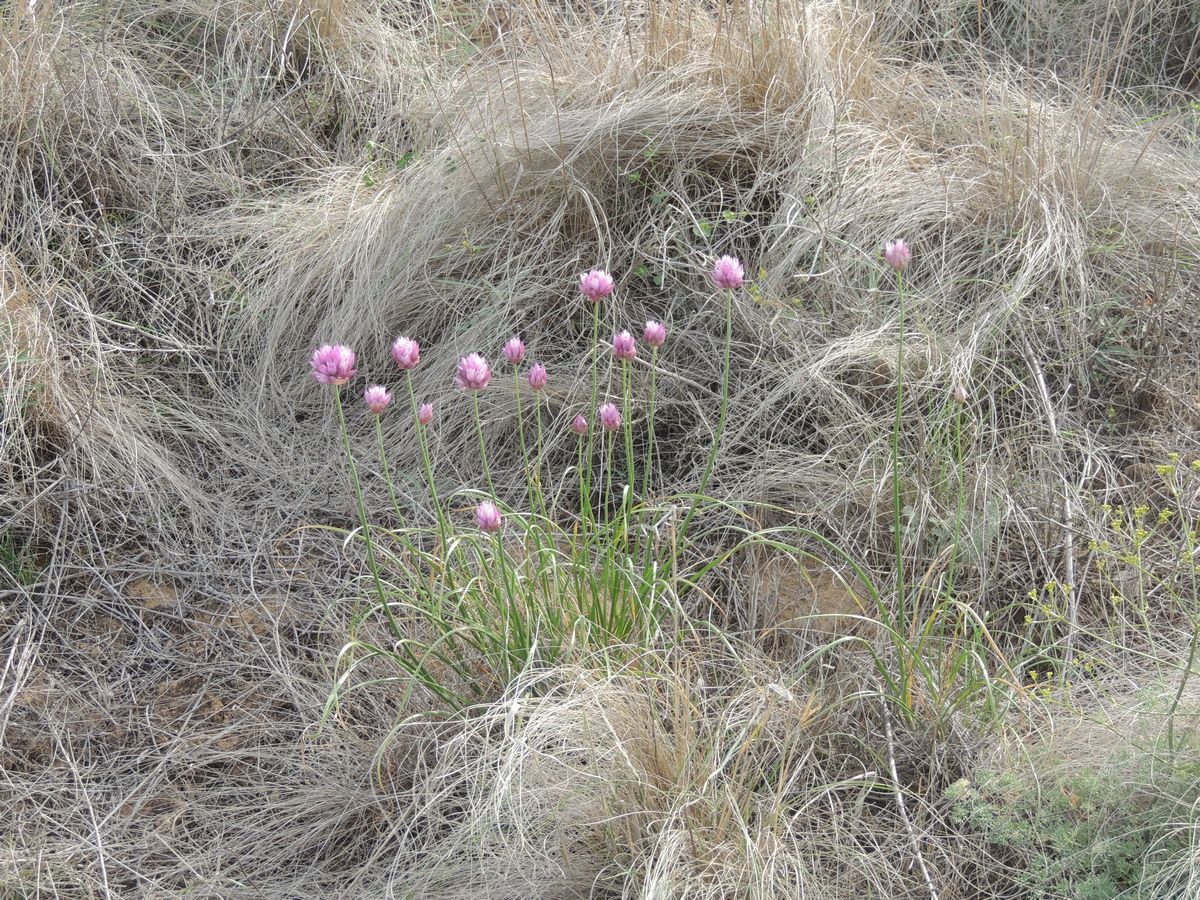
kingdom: Plantae
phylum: Tracheophyta
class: Liliopsida
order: Asparagales
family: Amaryllidaceae
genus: Allium
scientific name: Allium inderiense
